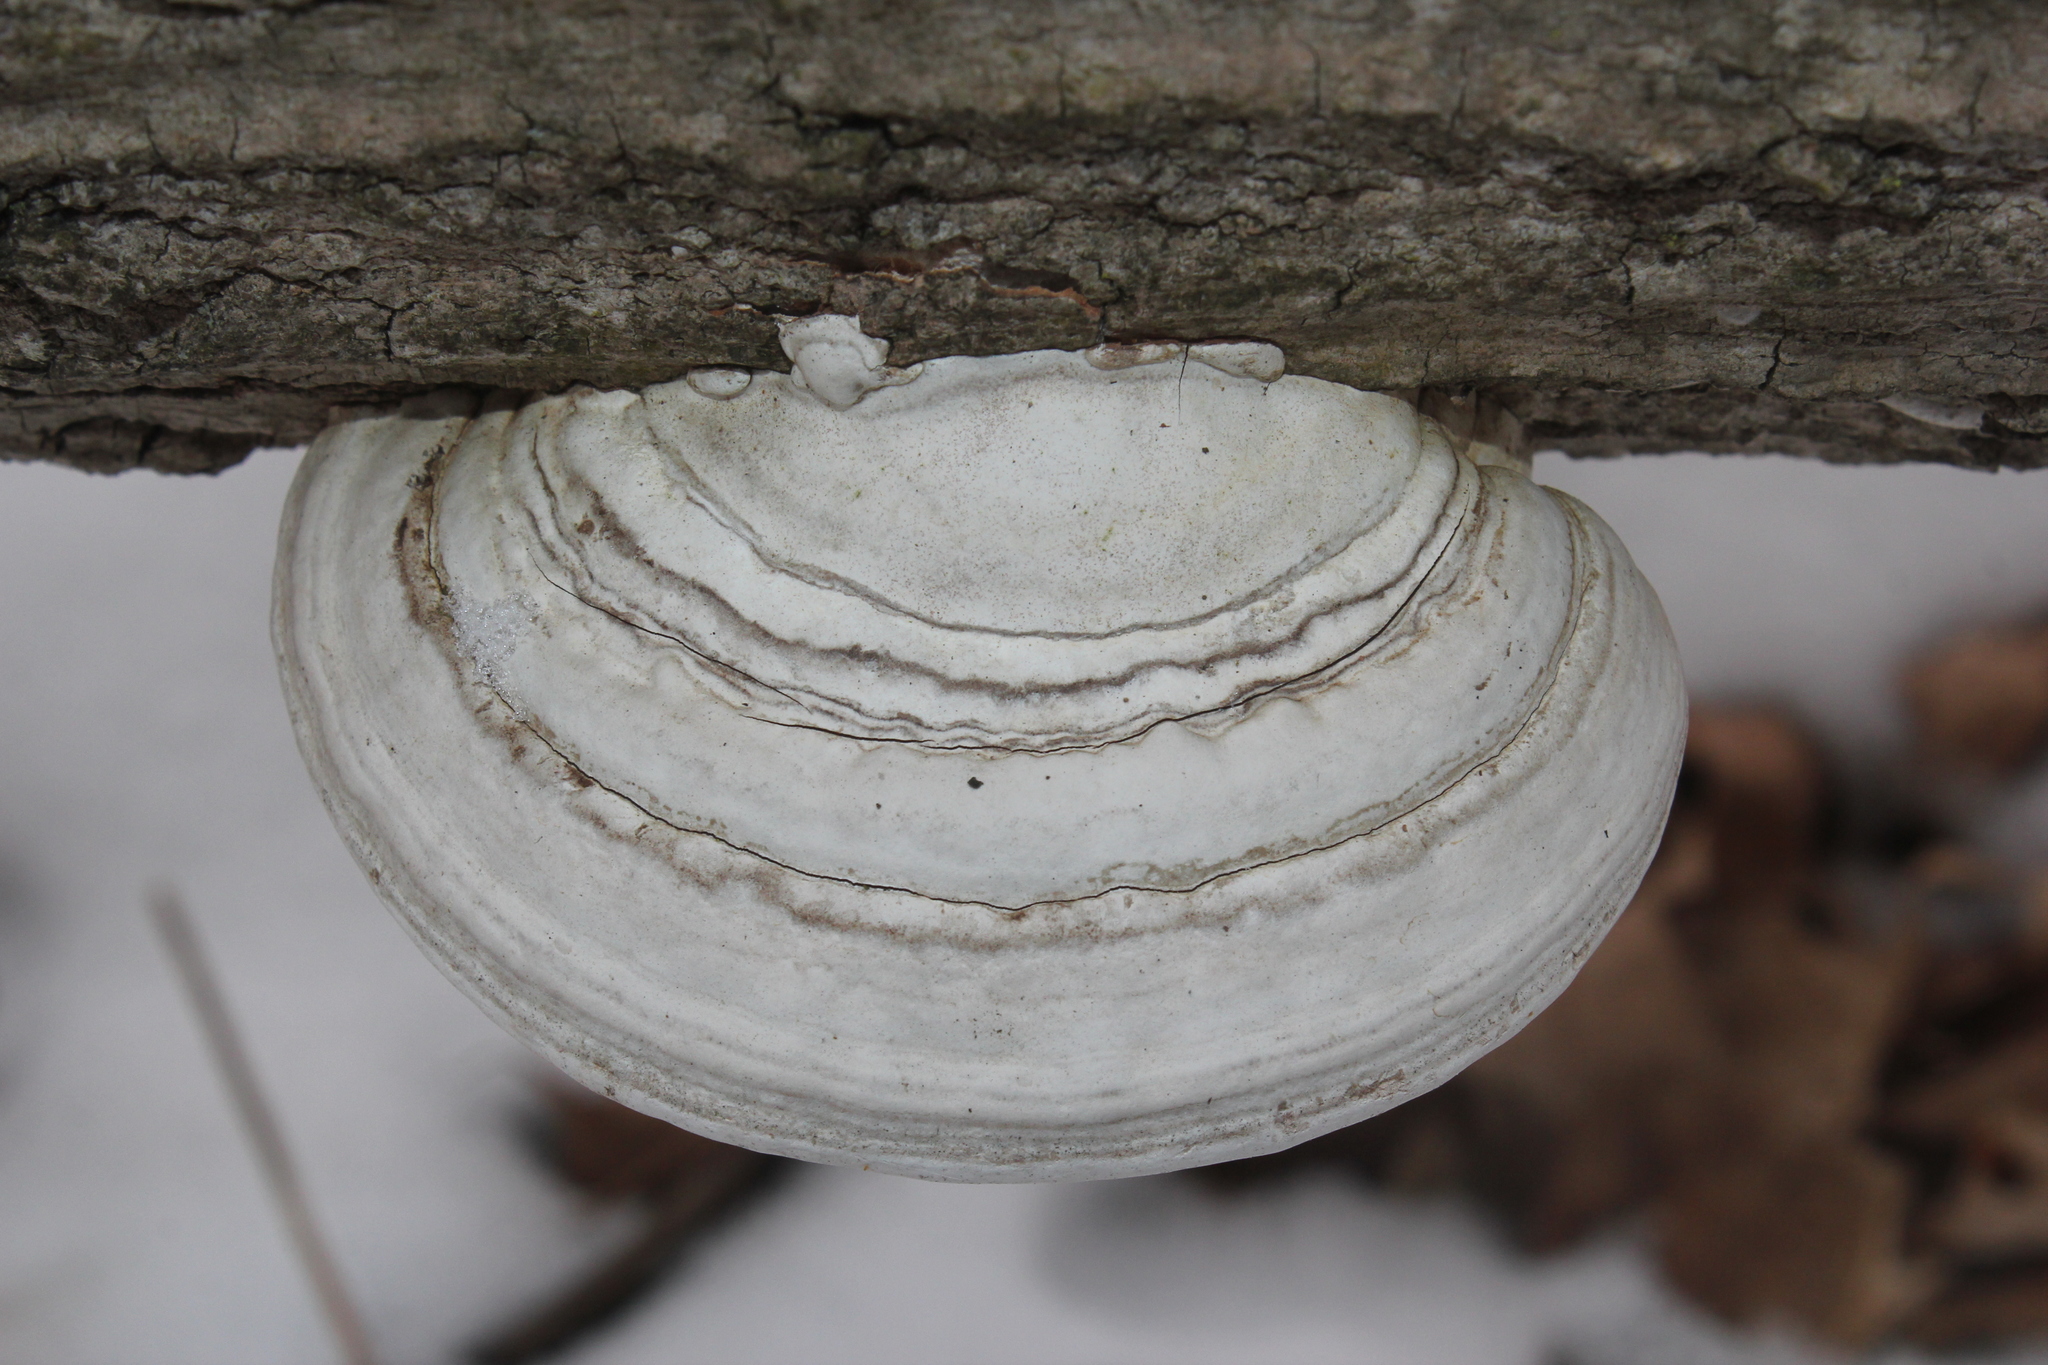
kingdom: Fungi
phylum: Basidiomycota
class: Agaricomycetes
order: Polyporales
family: Polyporaceae
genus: Ganoderma
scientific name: Ganoderma applanatum
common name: Artist's bracket
